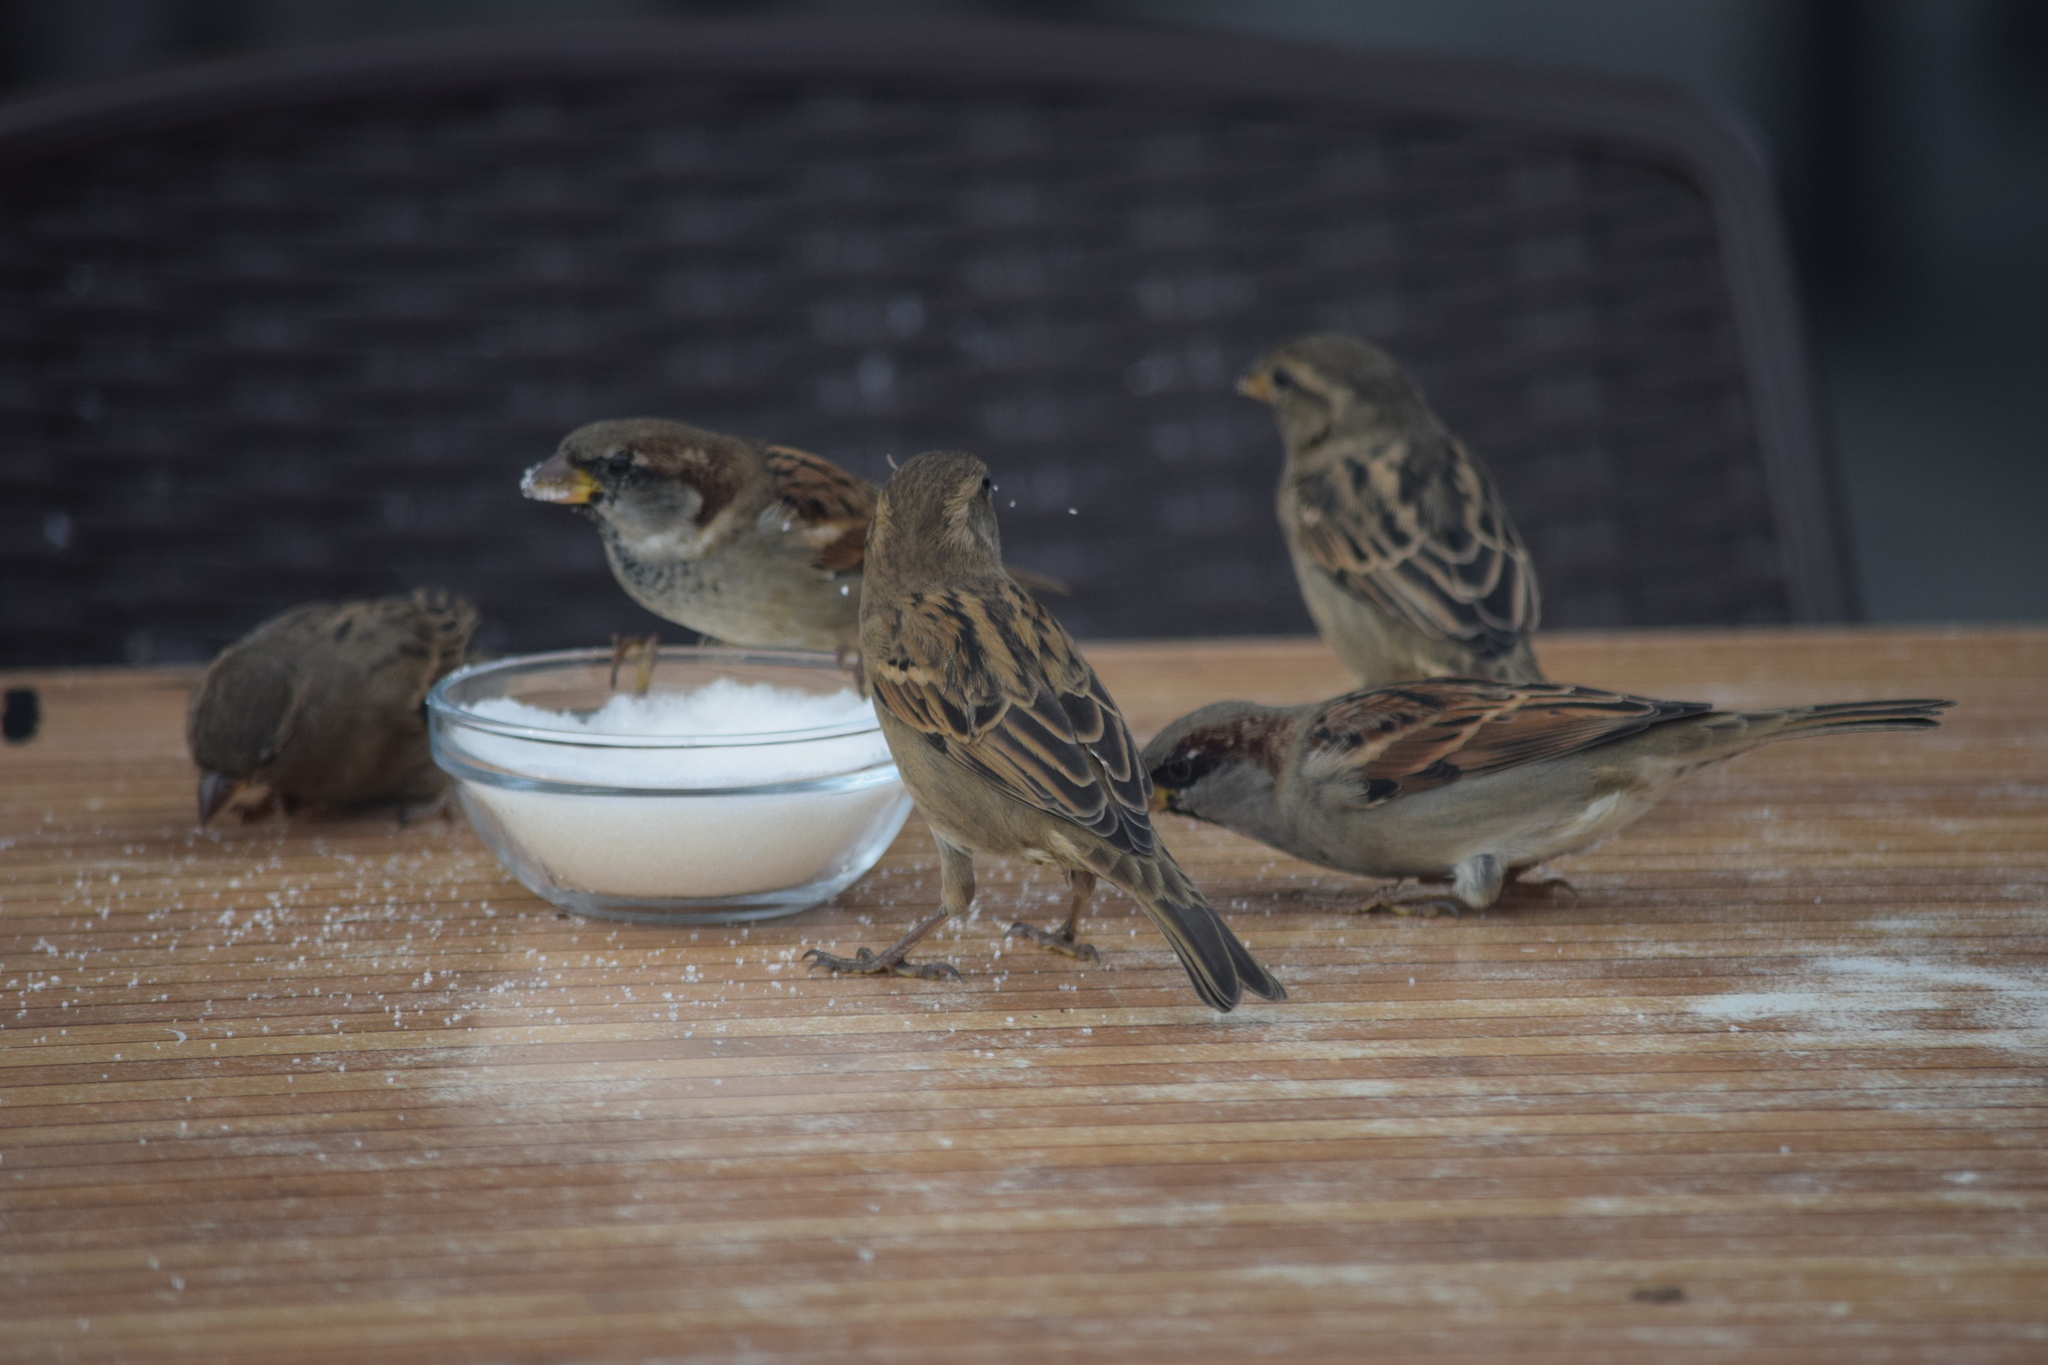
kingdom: Animalia
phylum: Chordata
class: Aves
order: Passeriformes
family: Passeridae
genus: Passer
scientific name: Passer domesticus
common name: House sparrow
